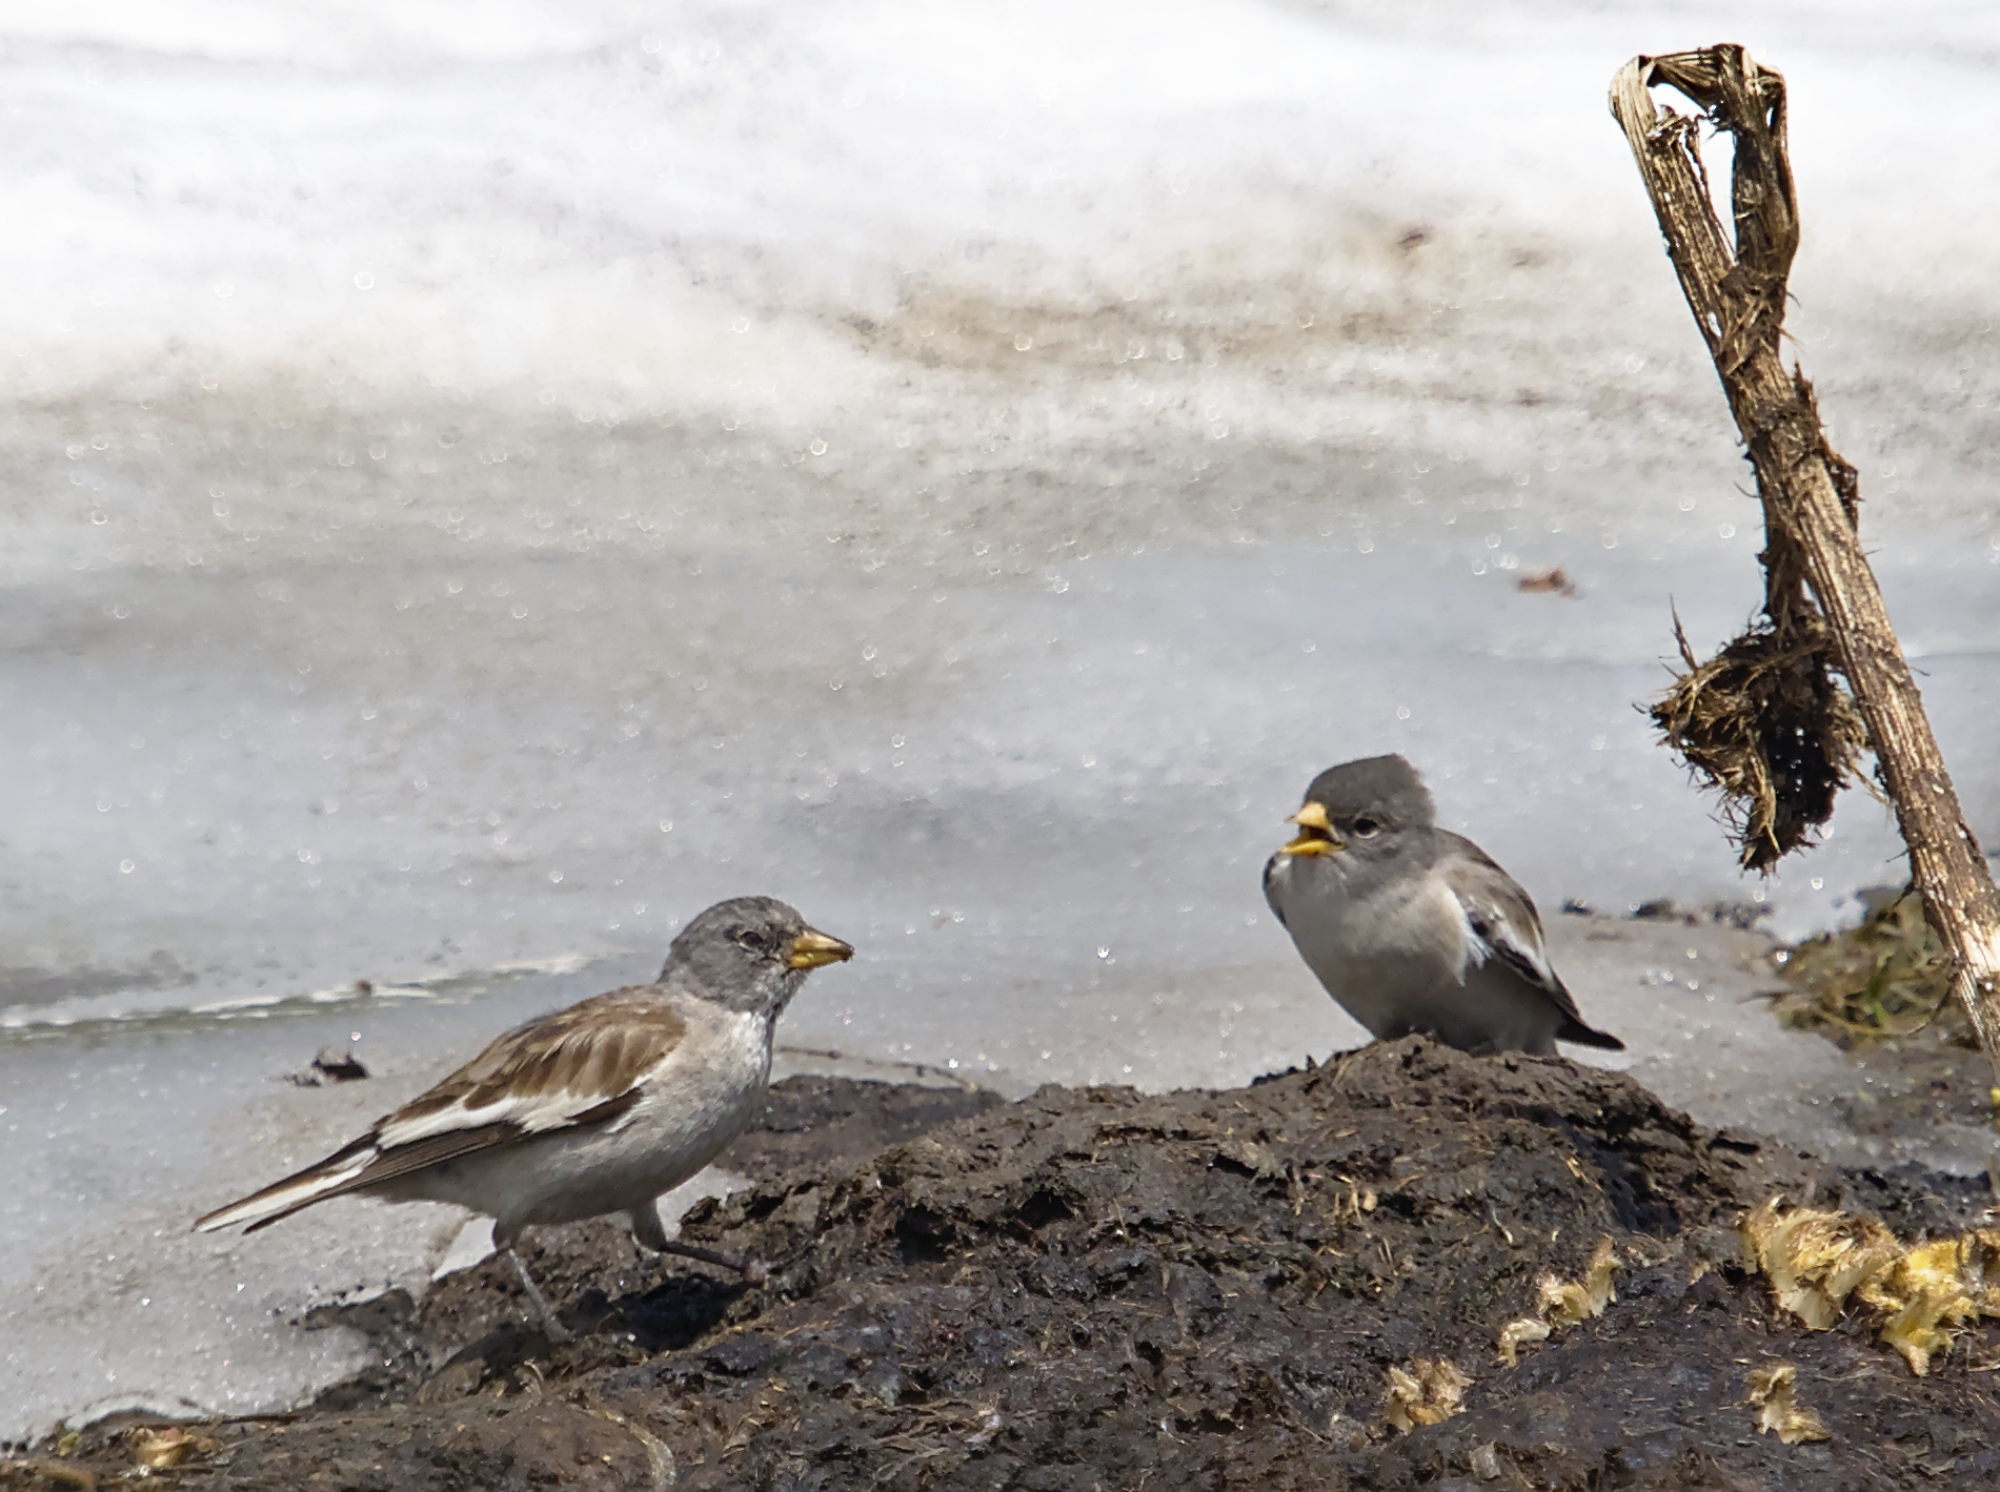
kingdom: Animalia
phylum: Chordata
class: Aves
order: Passeriformes
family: Passeridae
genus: Montifringilla
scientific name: Montifringilla nivalis
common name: White-winged snowfinch
